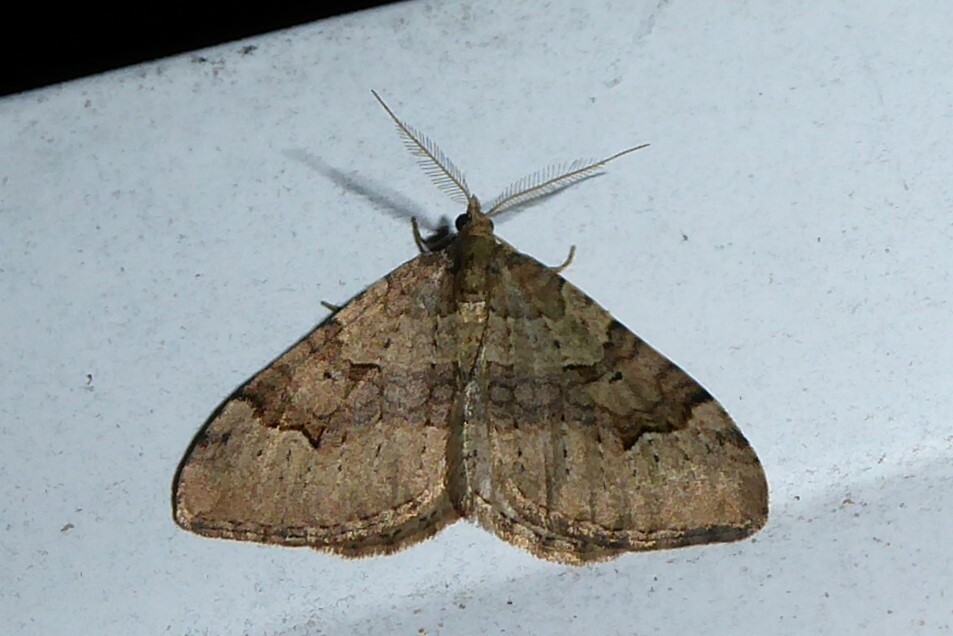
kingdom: Animalia
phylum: Arthropoda
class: Insecta
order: Lepidoptera
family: Geometridae
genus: Epyaxa
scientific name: Epyaxa rosearia
